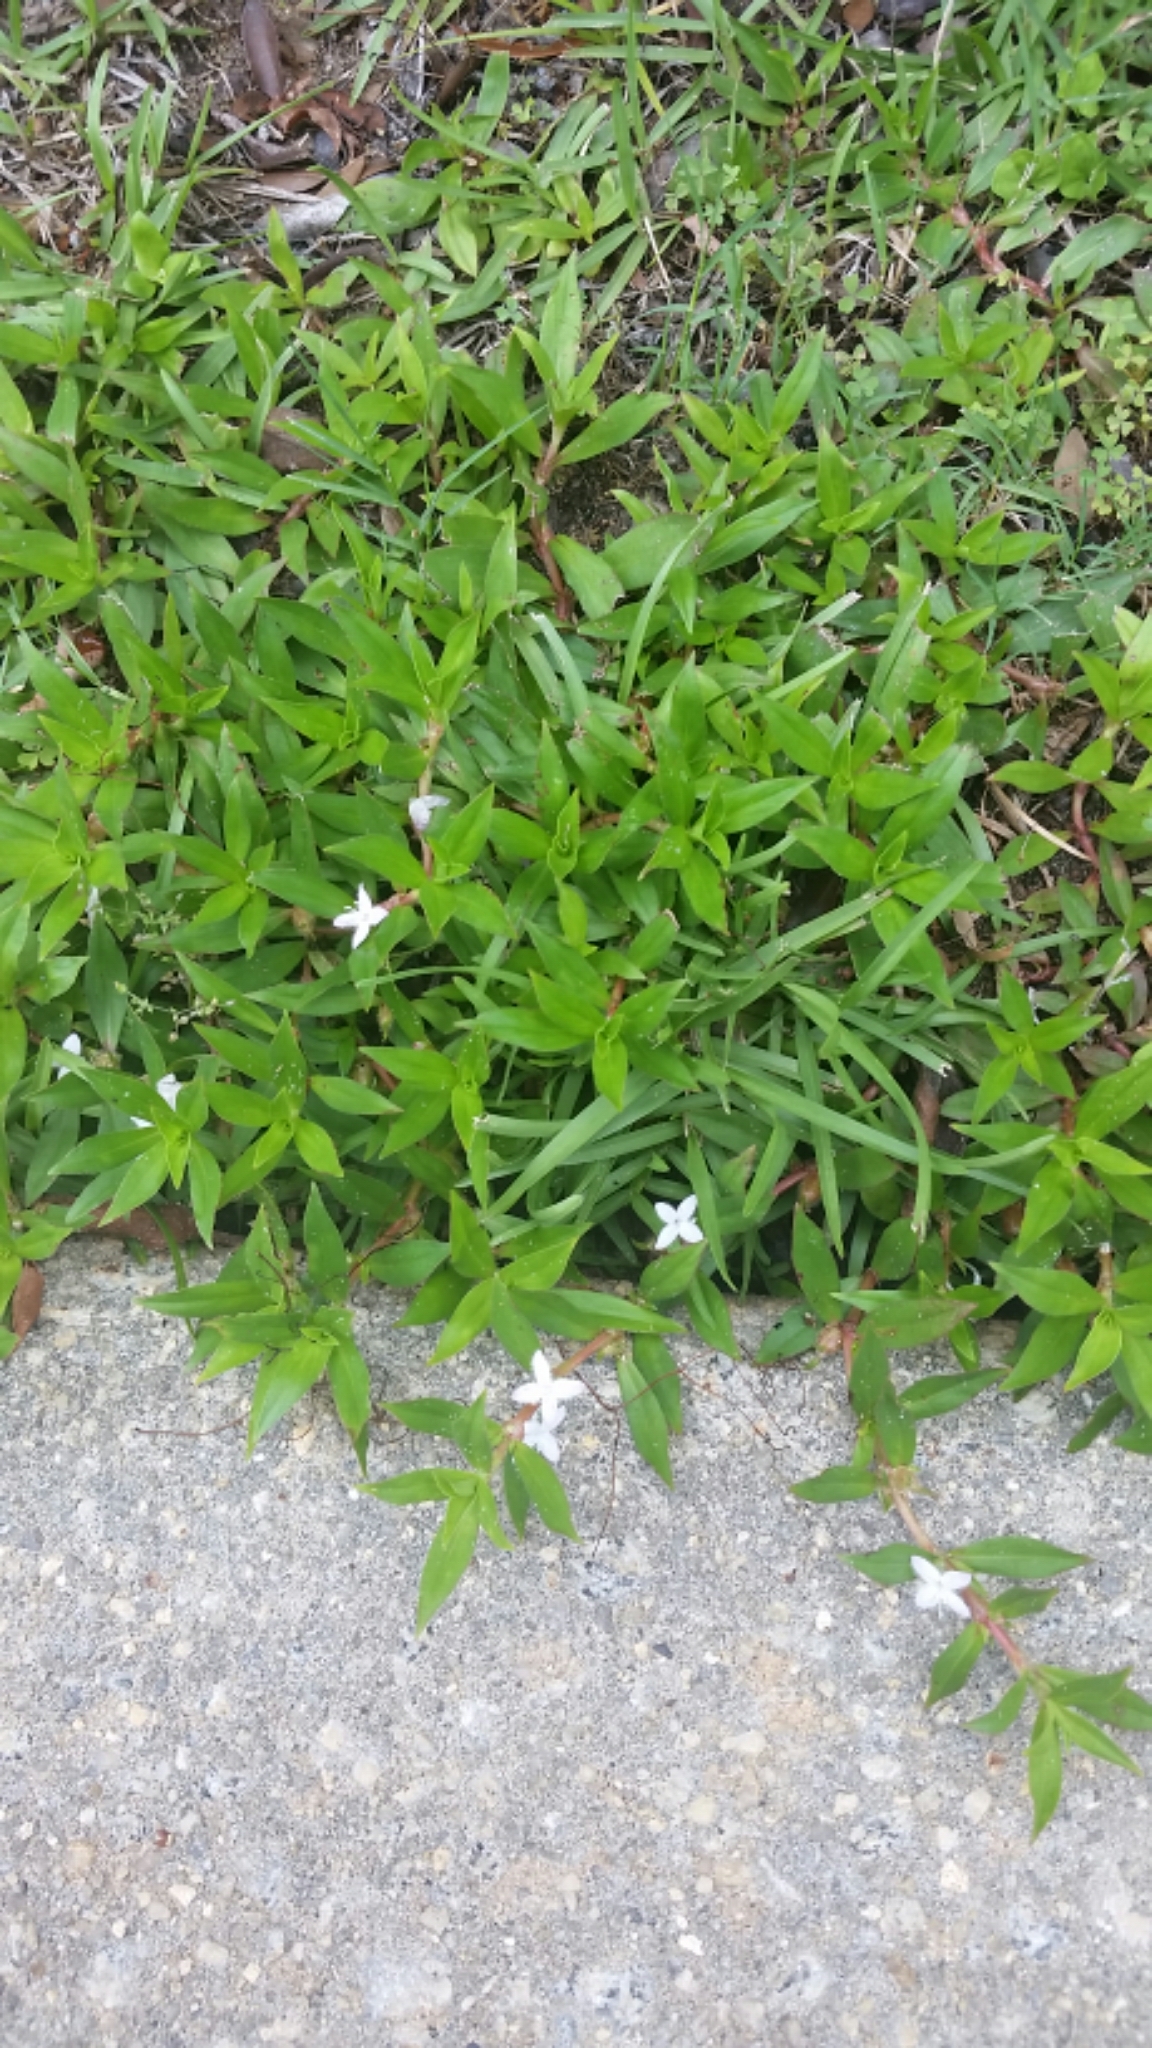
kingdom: Plantae
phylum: Tracheophyta
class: Magnoliopsida
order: Gentianales
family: Rubiaceae
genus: Diodia
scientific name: Diodia virginiana
